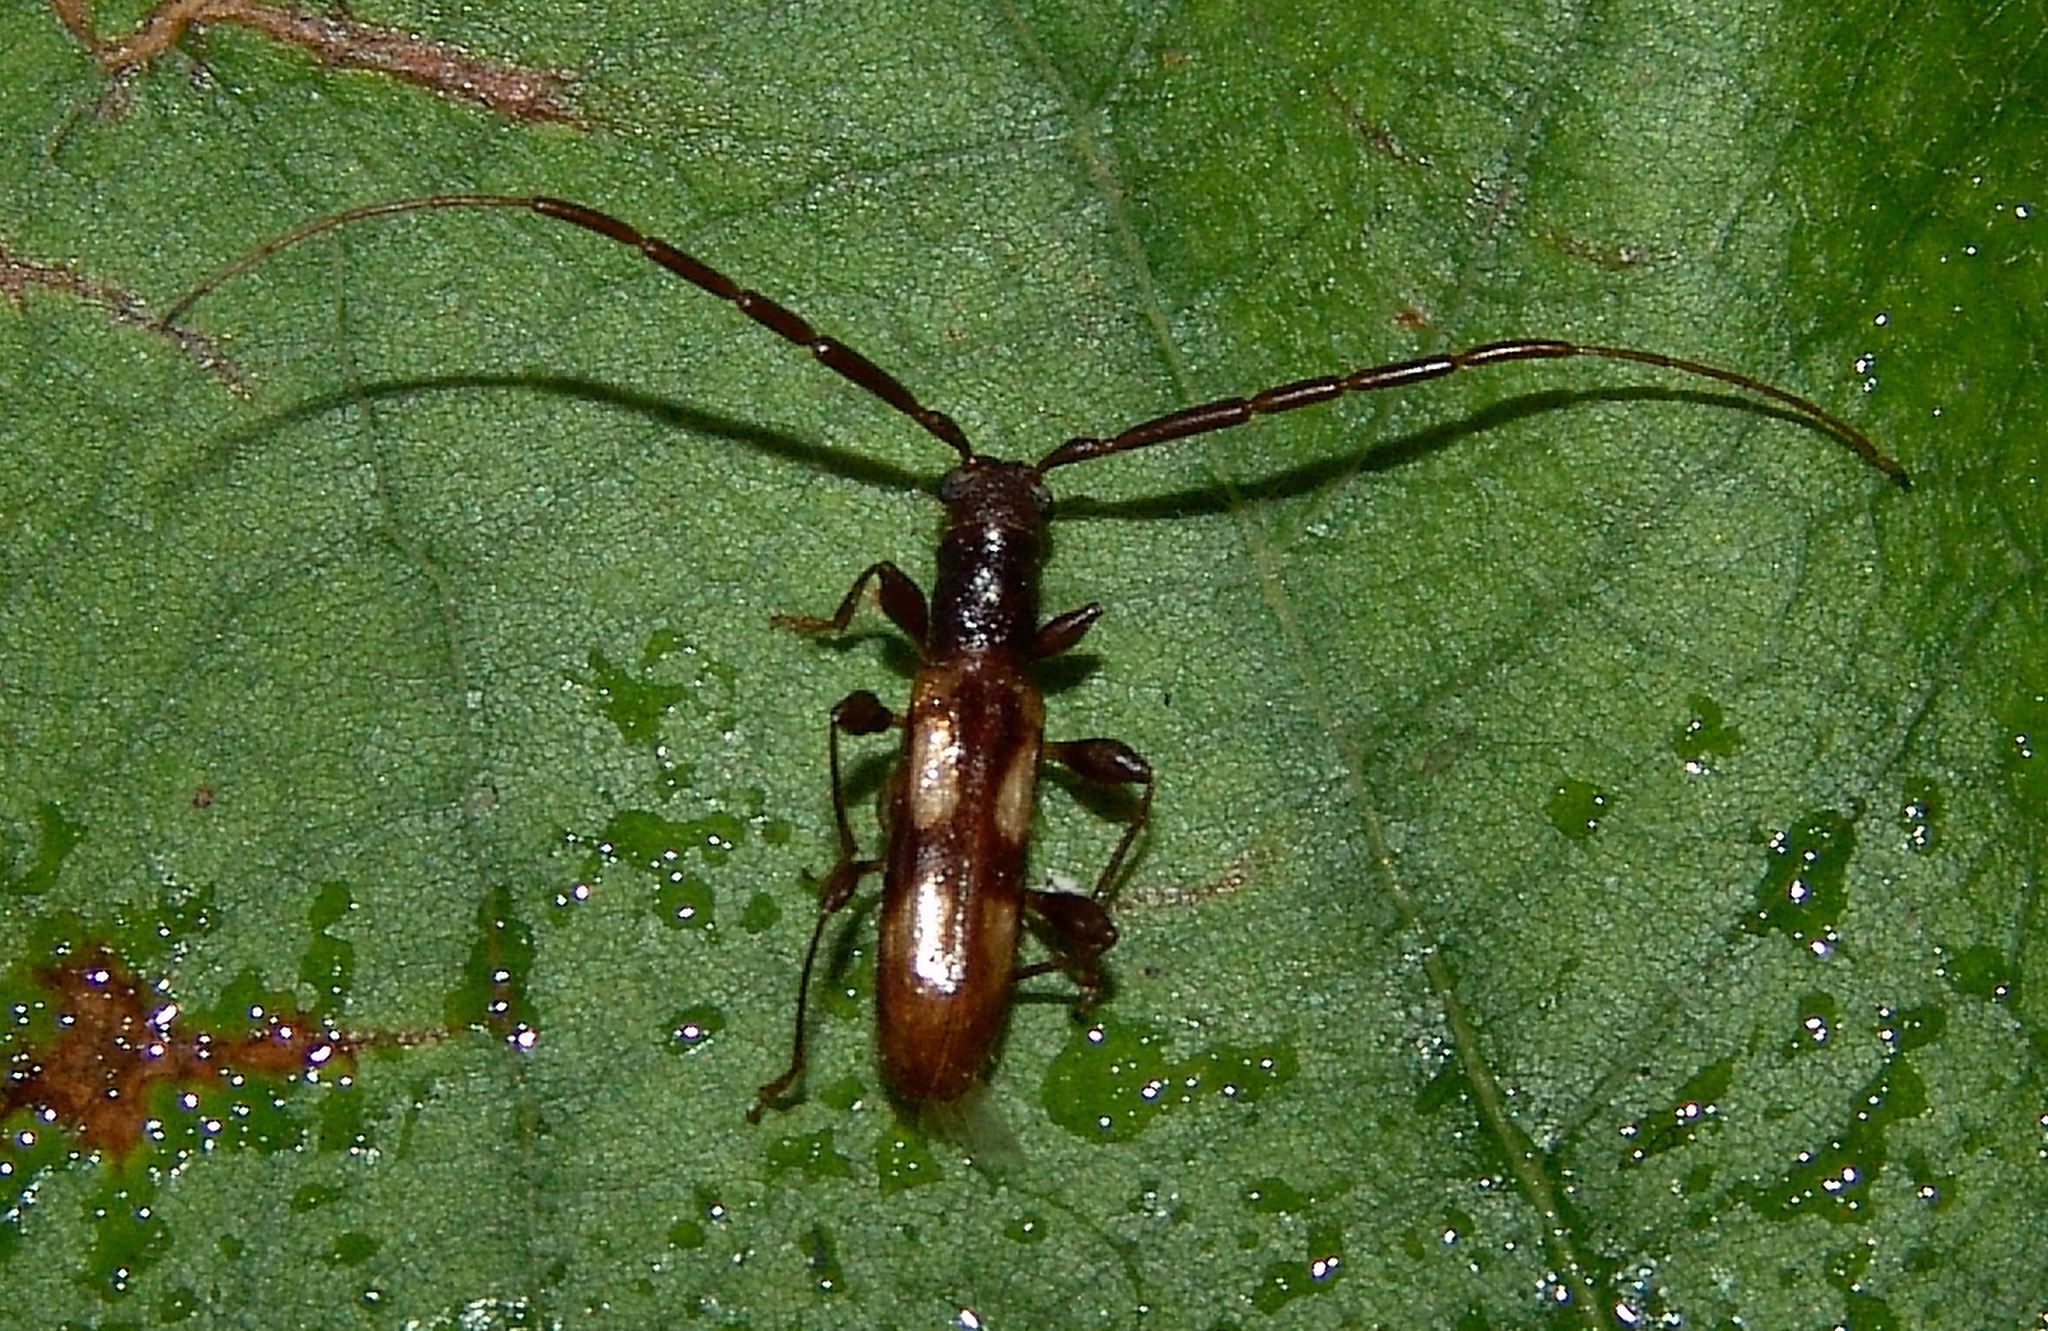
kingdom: Animalia
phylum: Arthropoda
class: Insecta
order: Coleoptera
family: Cerambycidae
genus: Heterachthes
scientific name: Heterachthes quadrimaculatus
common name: Four-spotted hickory borer
